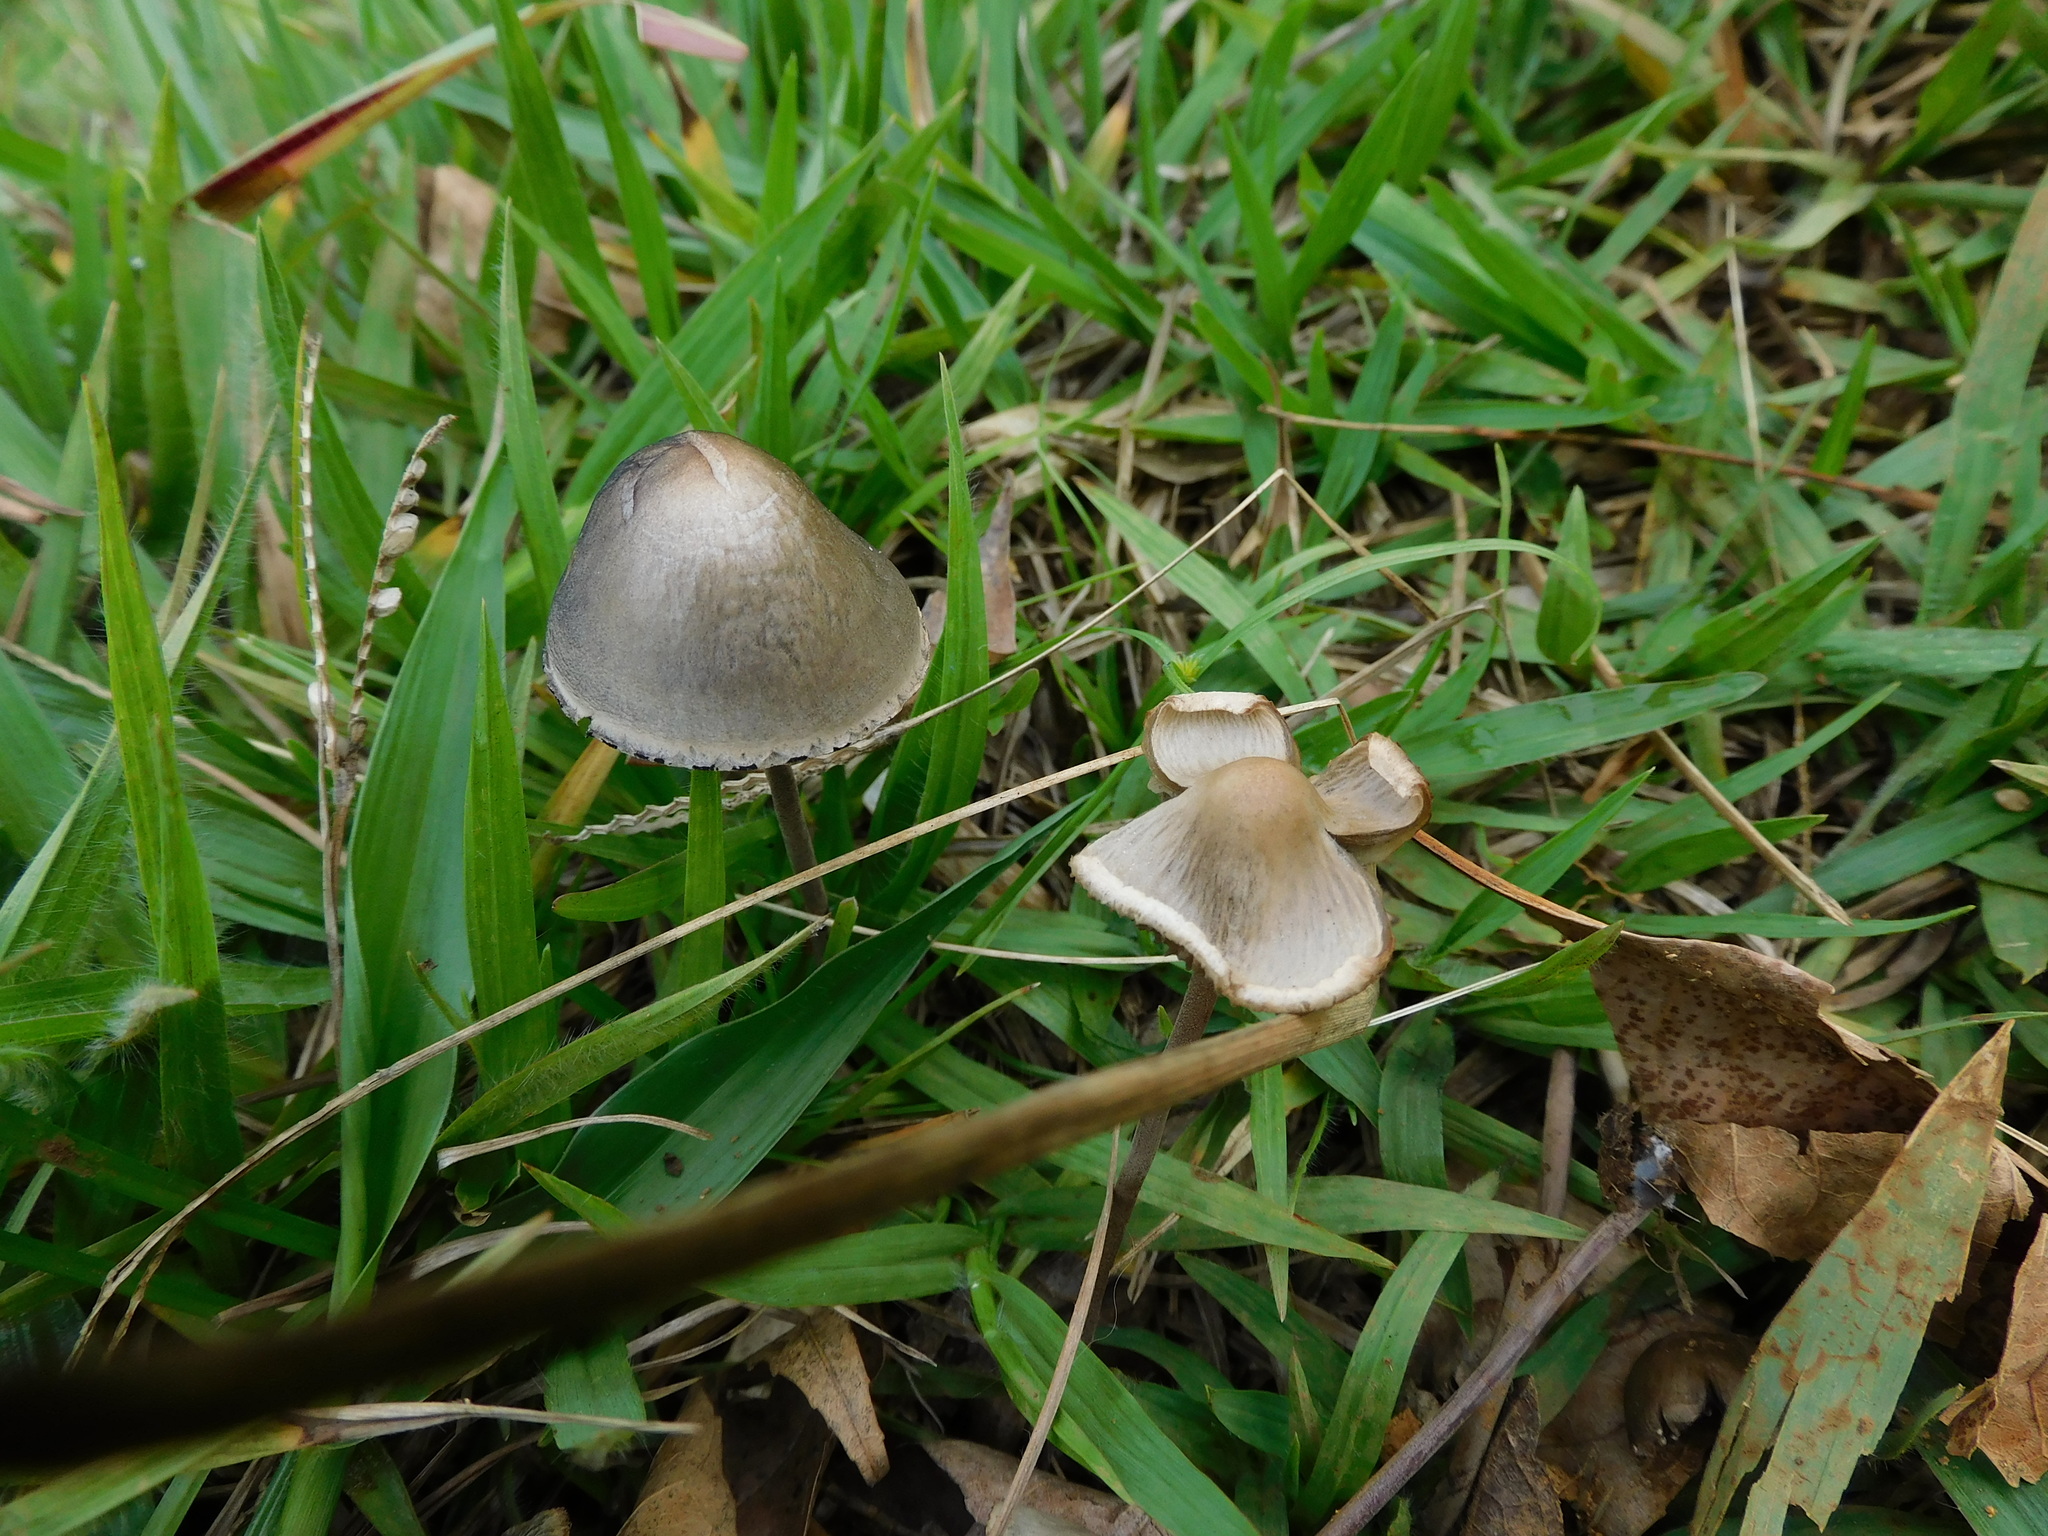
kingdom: Fungi
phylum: Basidiomycota
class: Agaricomycetes
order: Agaricales
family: Bolbitiaceae
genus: Panaeolus
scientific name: Panaeolus papilionaceus
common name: Petticoat mottlegill
